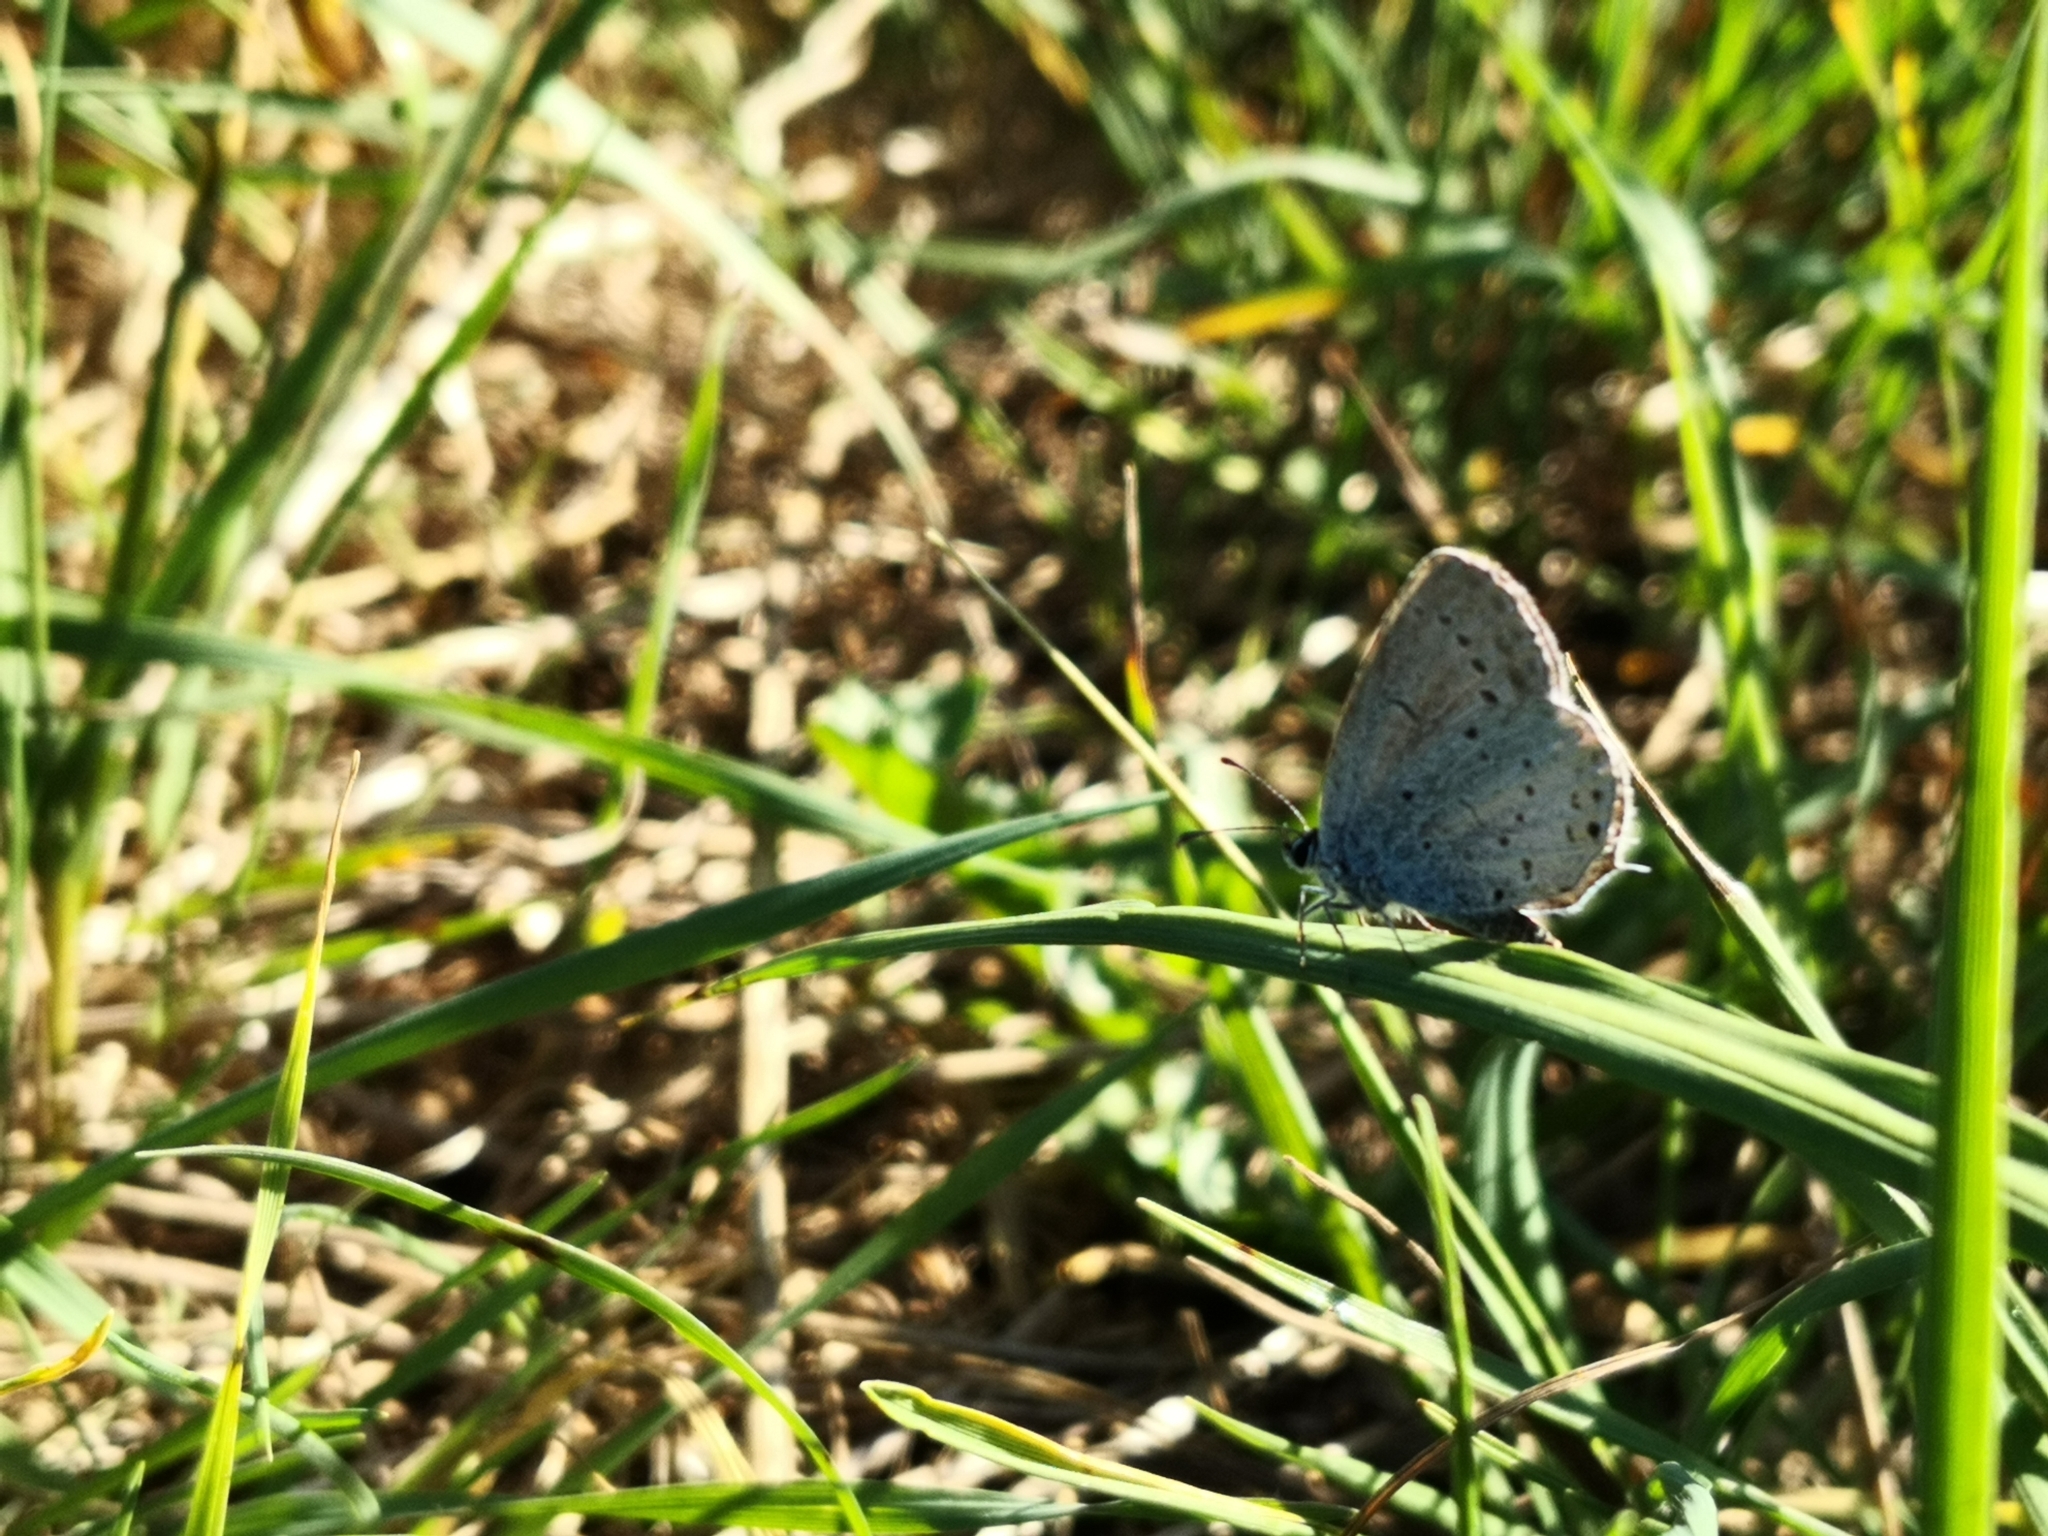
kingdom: Animalia
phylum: Arthropoda
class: Insecta
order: Lepidoptera
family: Lycaenidae
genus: Elkalyce
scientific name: Elkalyce argiades
